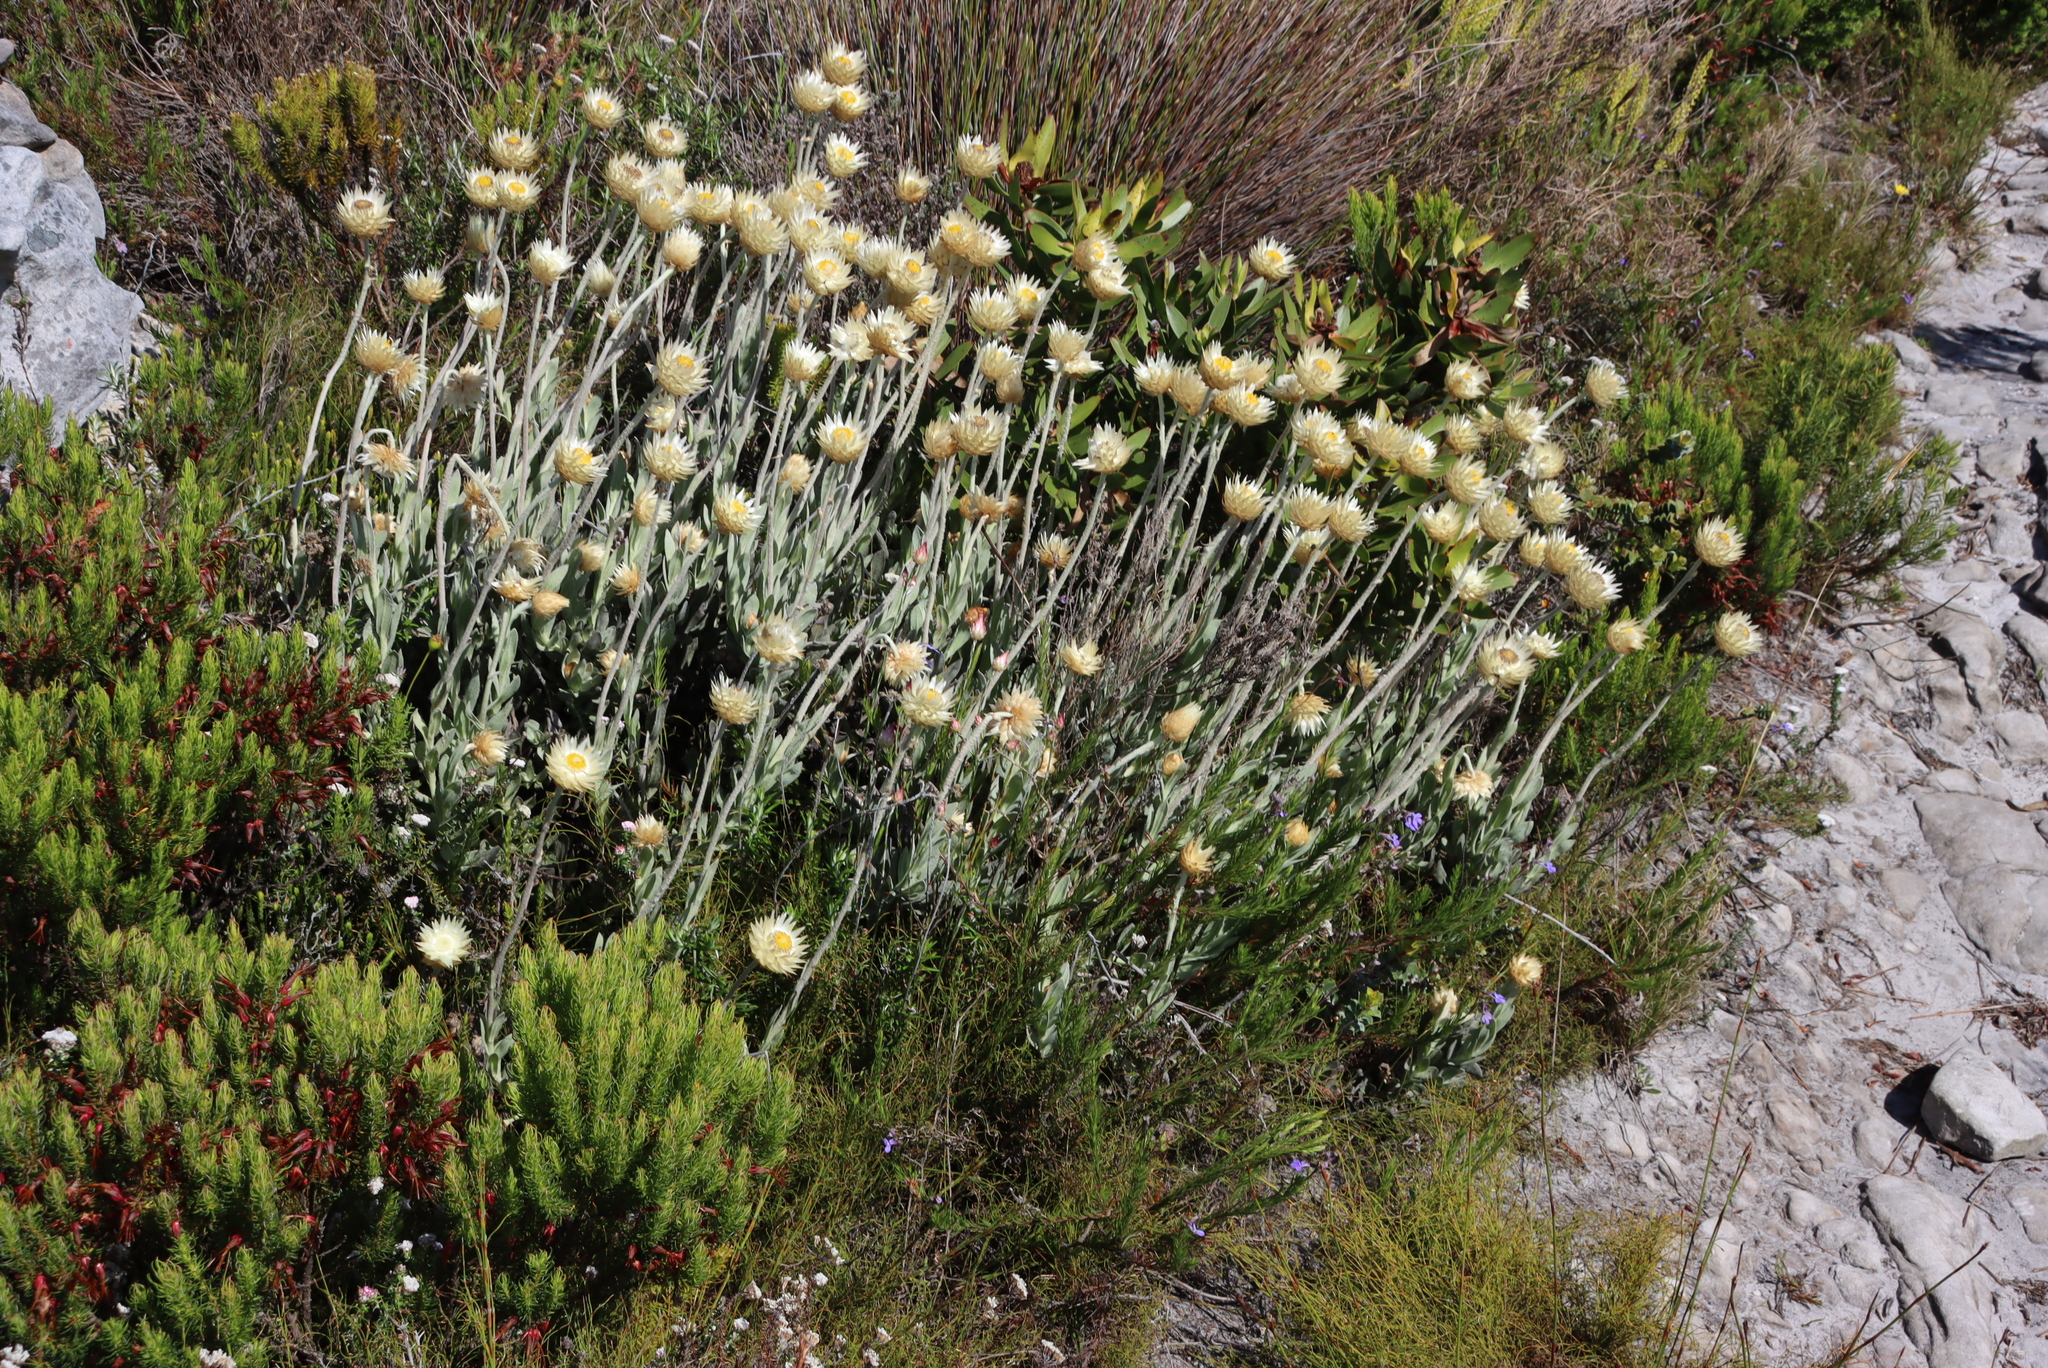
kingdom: Plantae
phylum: Tracheophyta
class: Magnoliopsida
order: Asterales
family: Asteraceae
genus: Syncarpha
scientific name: Syncarpha speciosissima
